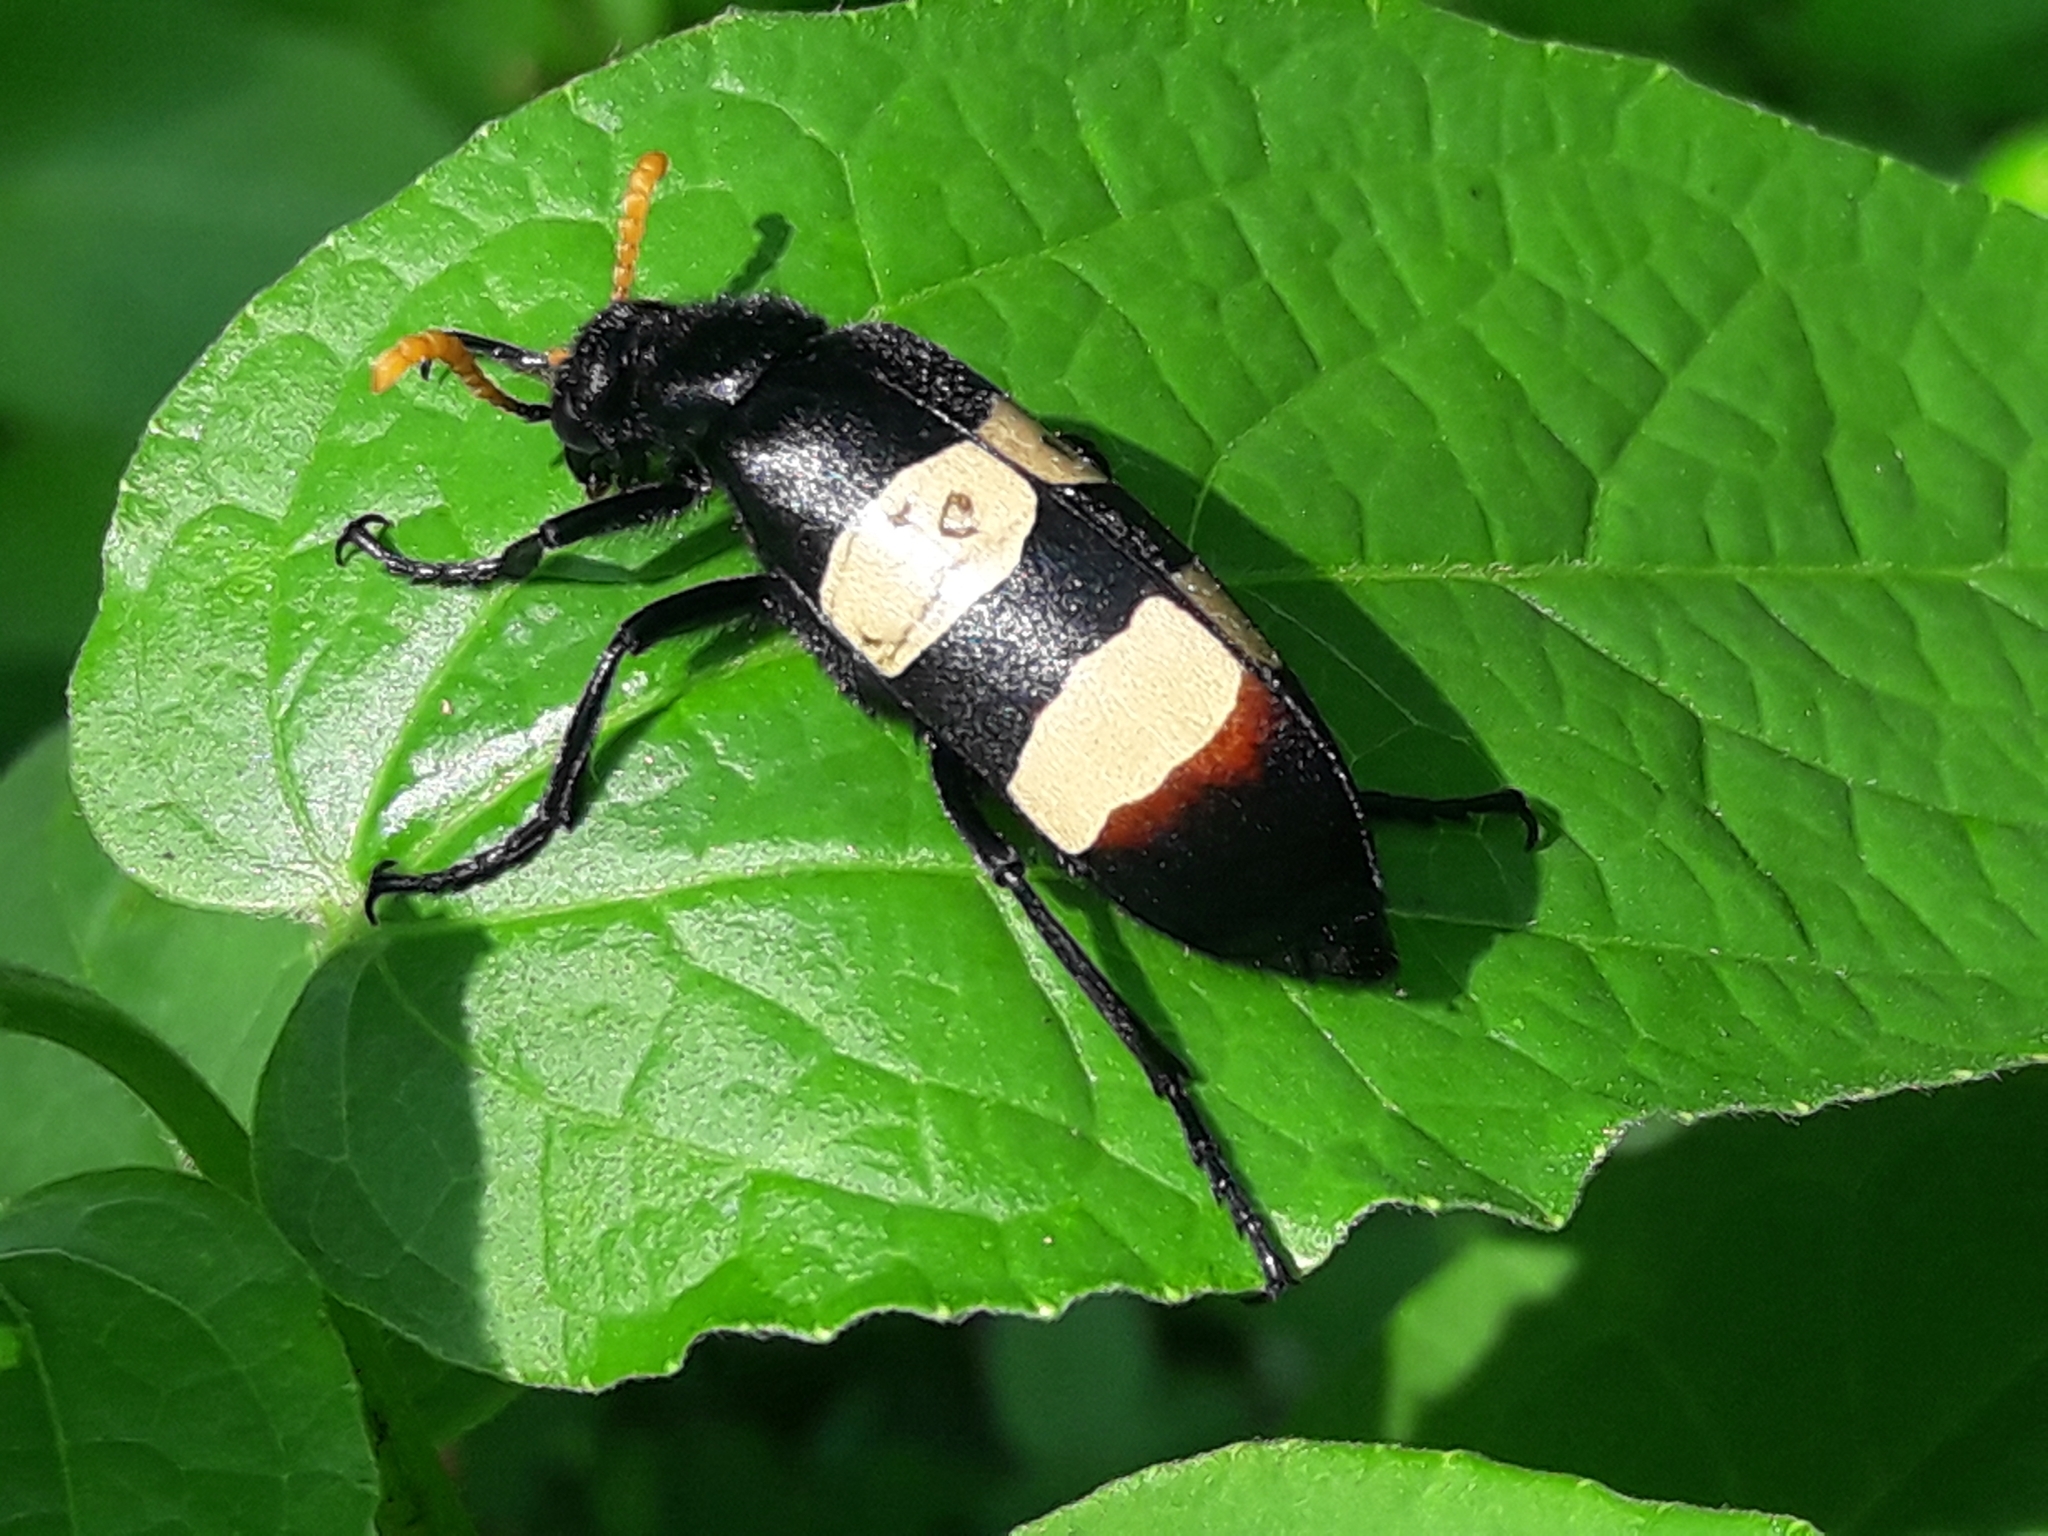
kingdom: Animalia
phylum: Arthropoda
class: Insecta
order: Coleoptera
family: Meloidae
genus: Hycleus
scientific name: Hycleus
